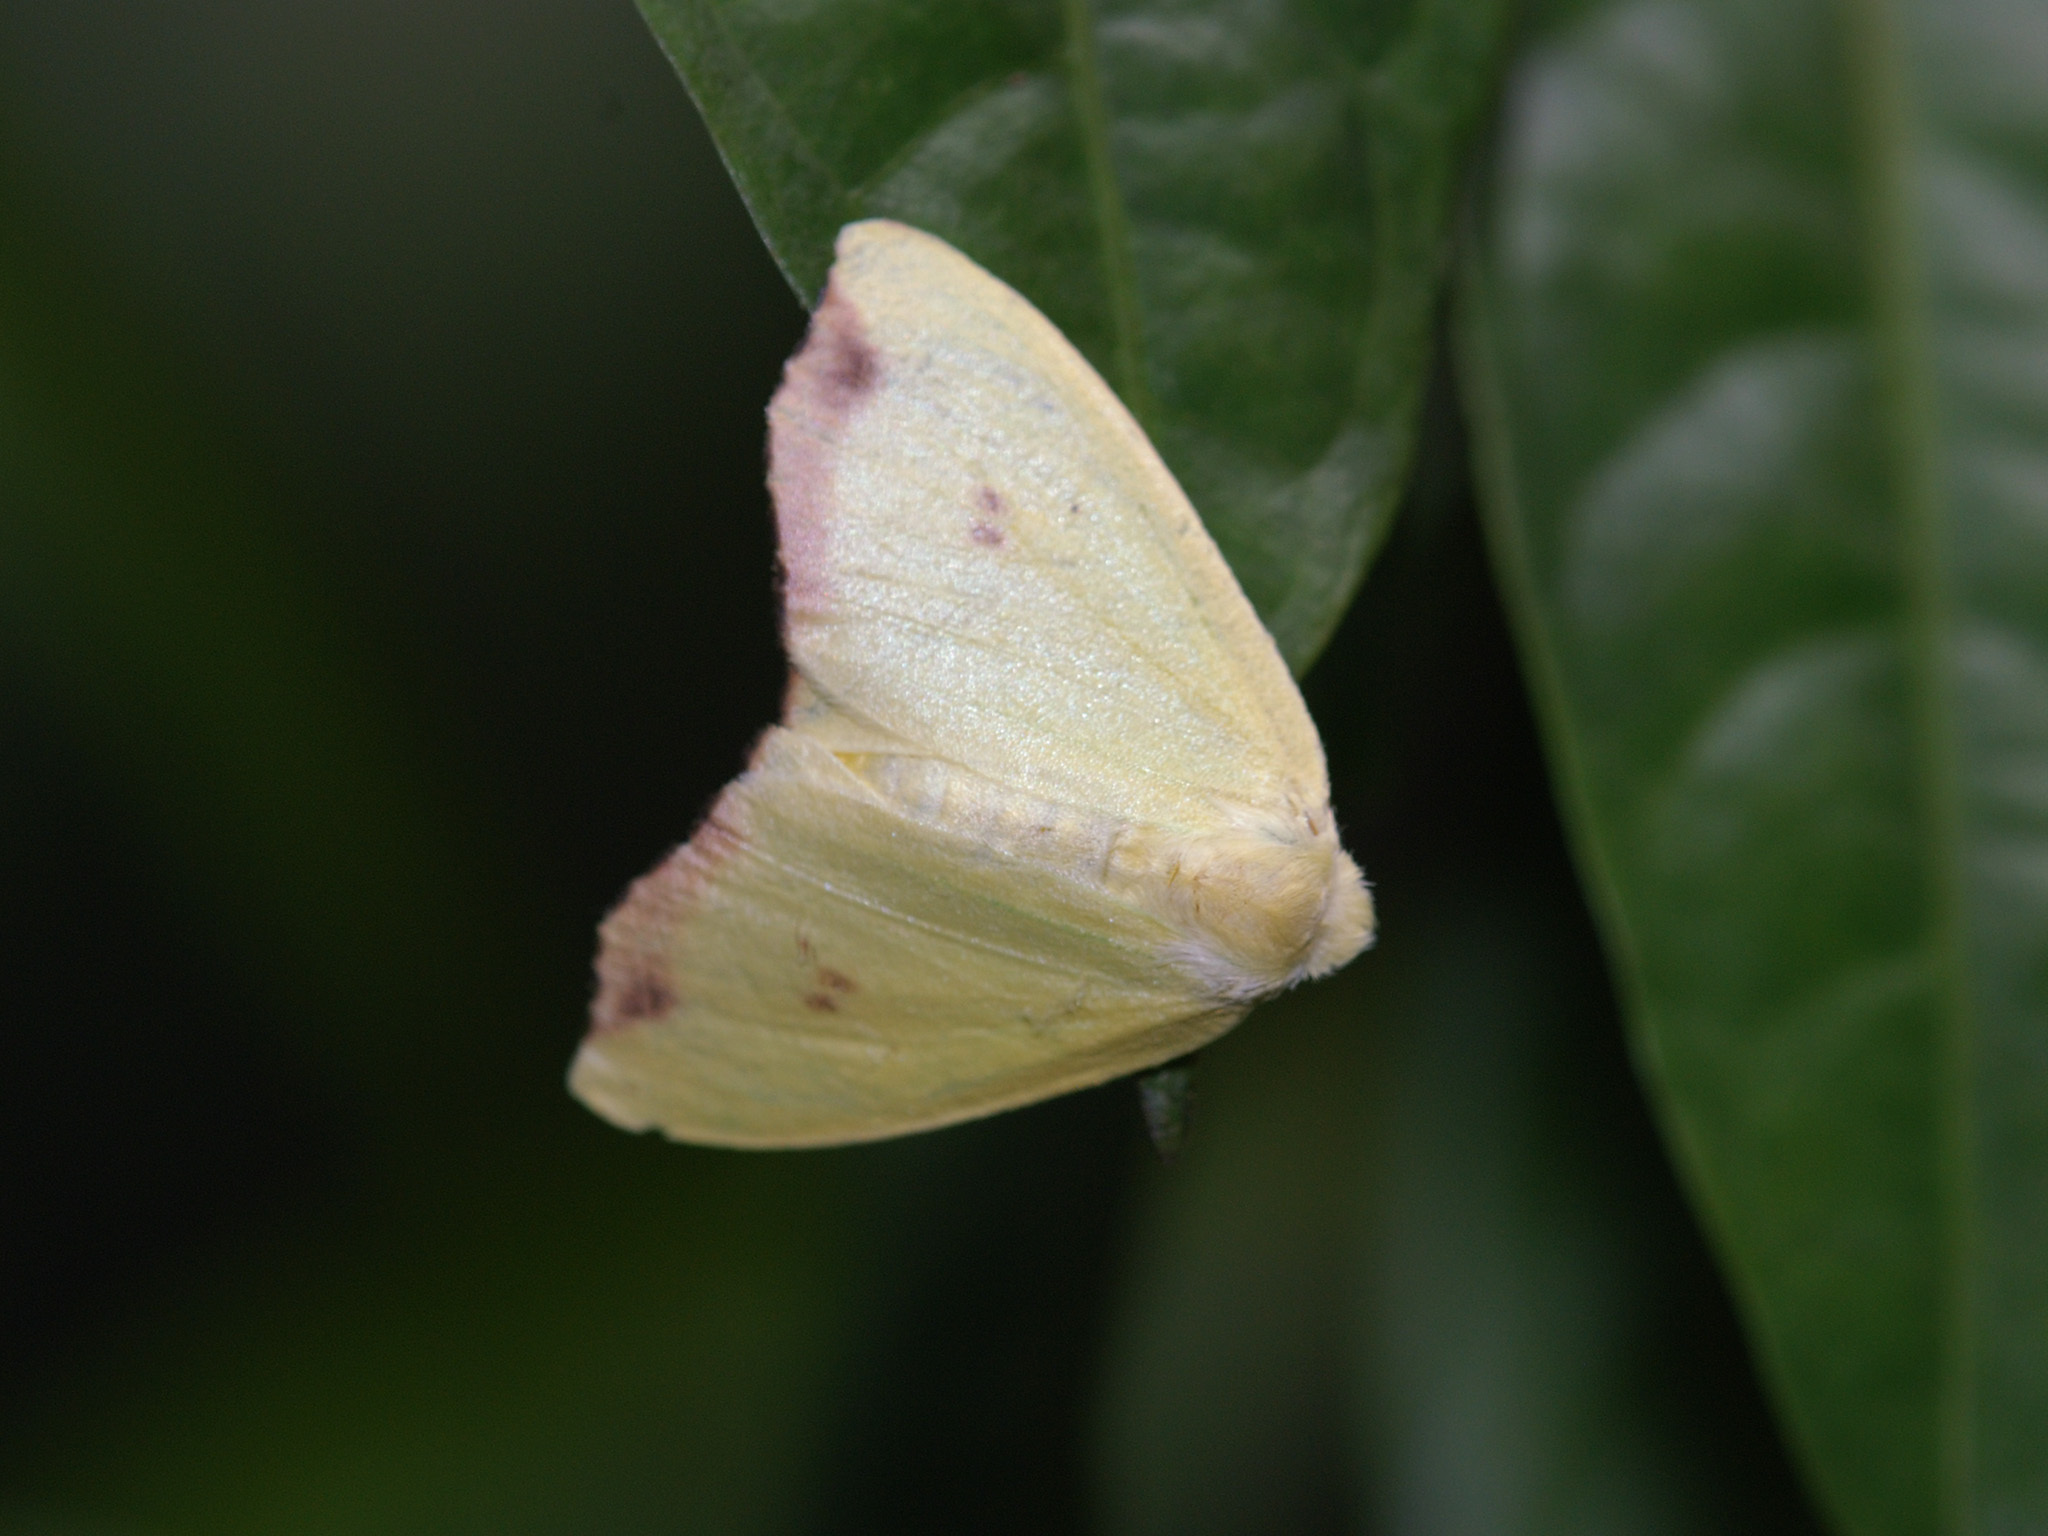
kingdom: Animalia
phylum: Arthropoda
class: Insecta
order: Lepidoptera
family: Erebidae
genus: Arctornis
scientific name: Arctornis rutila
